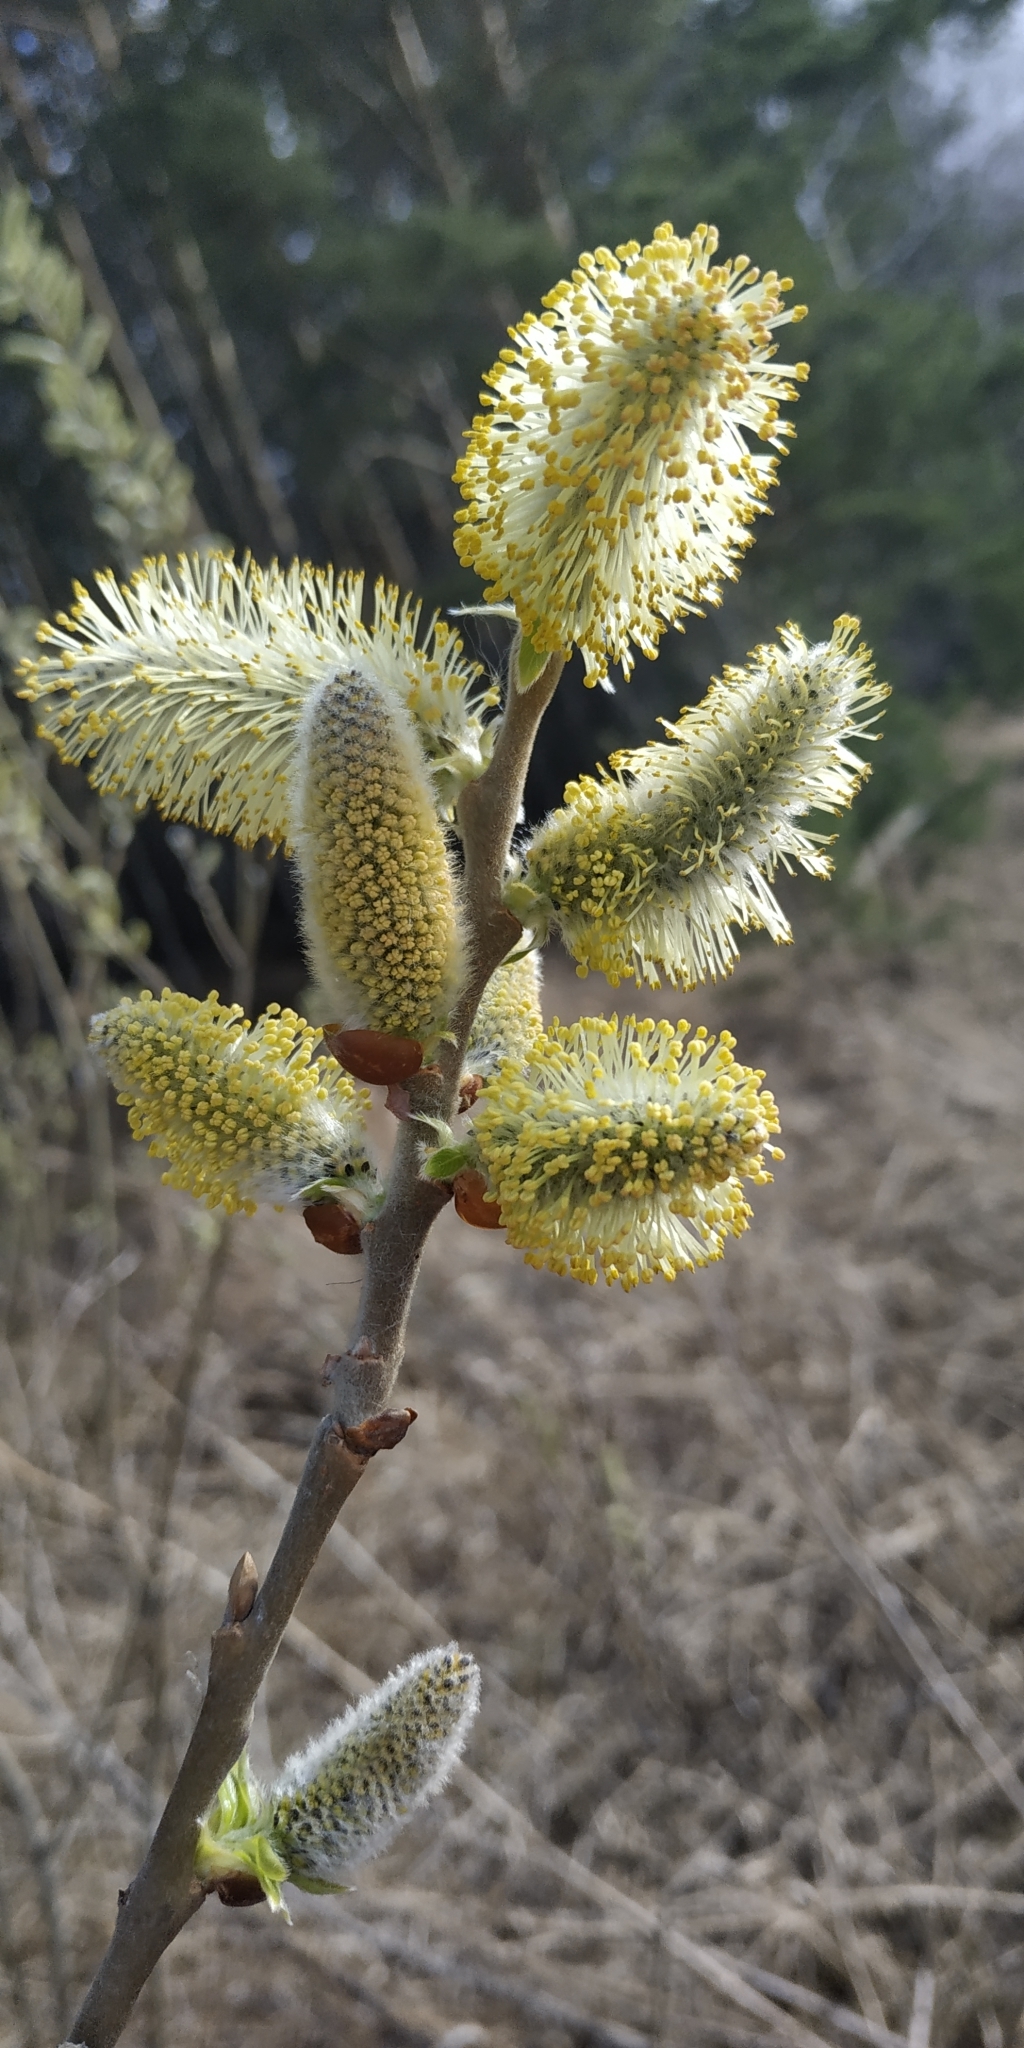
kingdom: Plantae
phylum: Tracheophyta
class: Magnoliopsida
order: Malpighiales
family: Salicaceae
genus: Salix
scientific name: Salix caprea
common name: Goat willow
